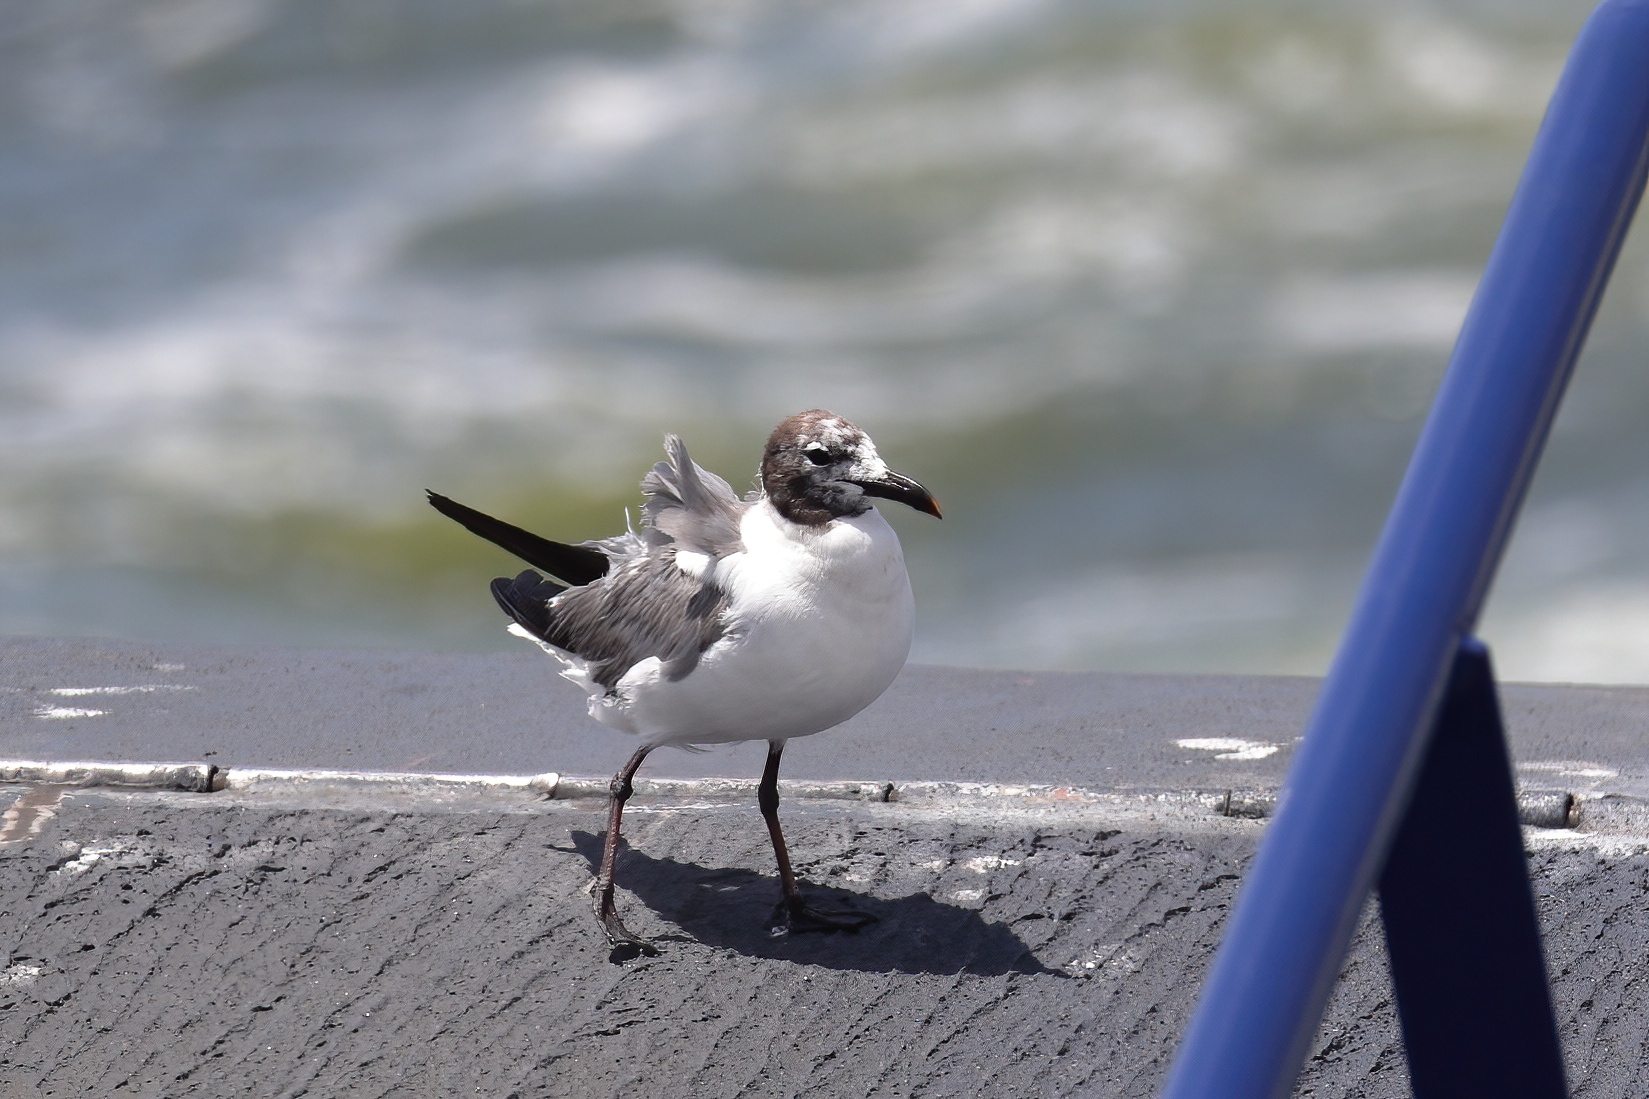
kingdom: Animalia
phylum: Chordata
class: Aves
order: Charadriiformes
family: Laridae
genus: Leucophaeus
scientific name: Leucophaeus atricilla
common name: Laughing gull
